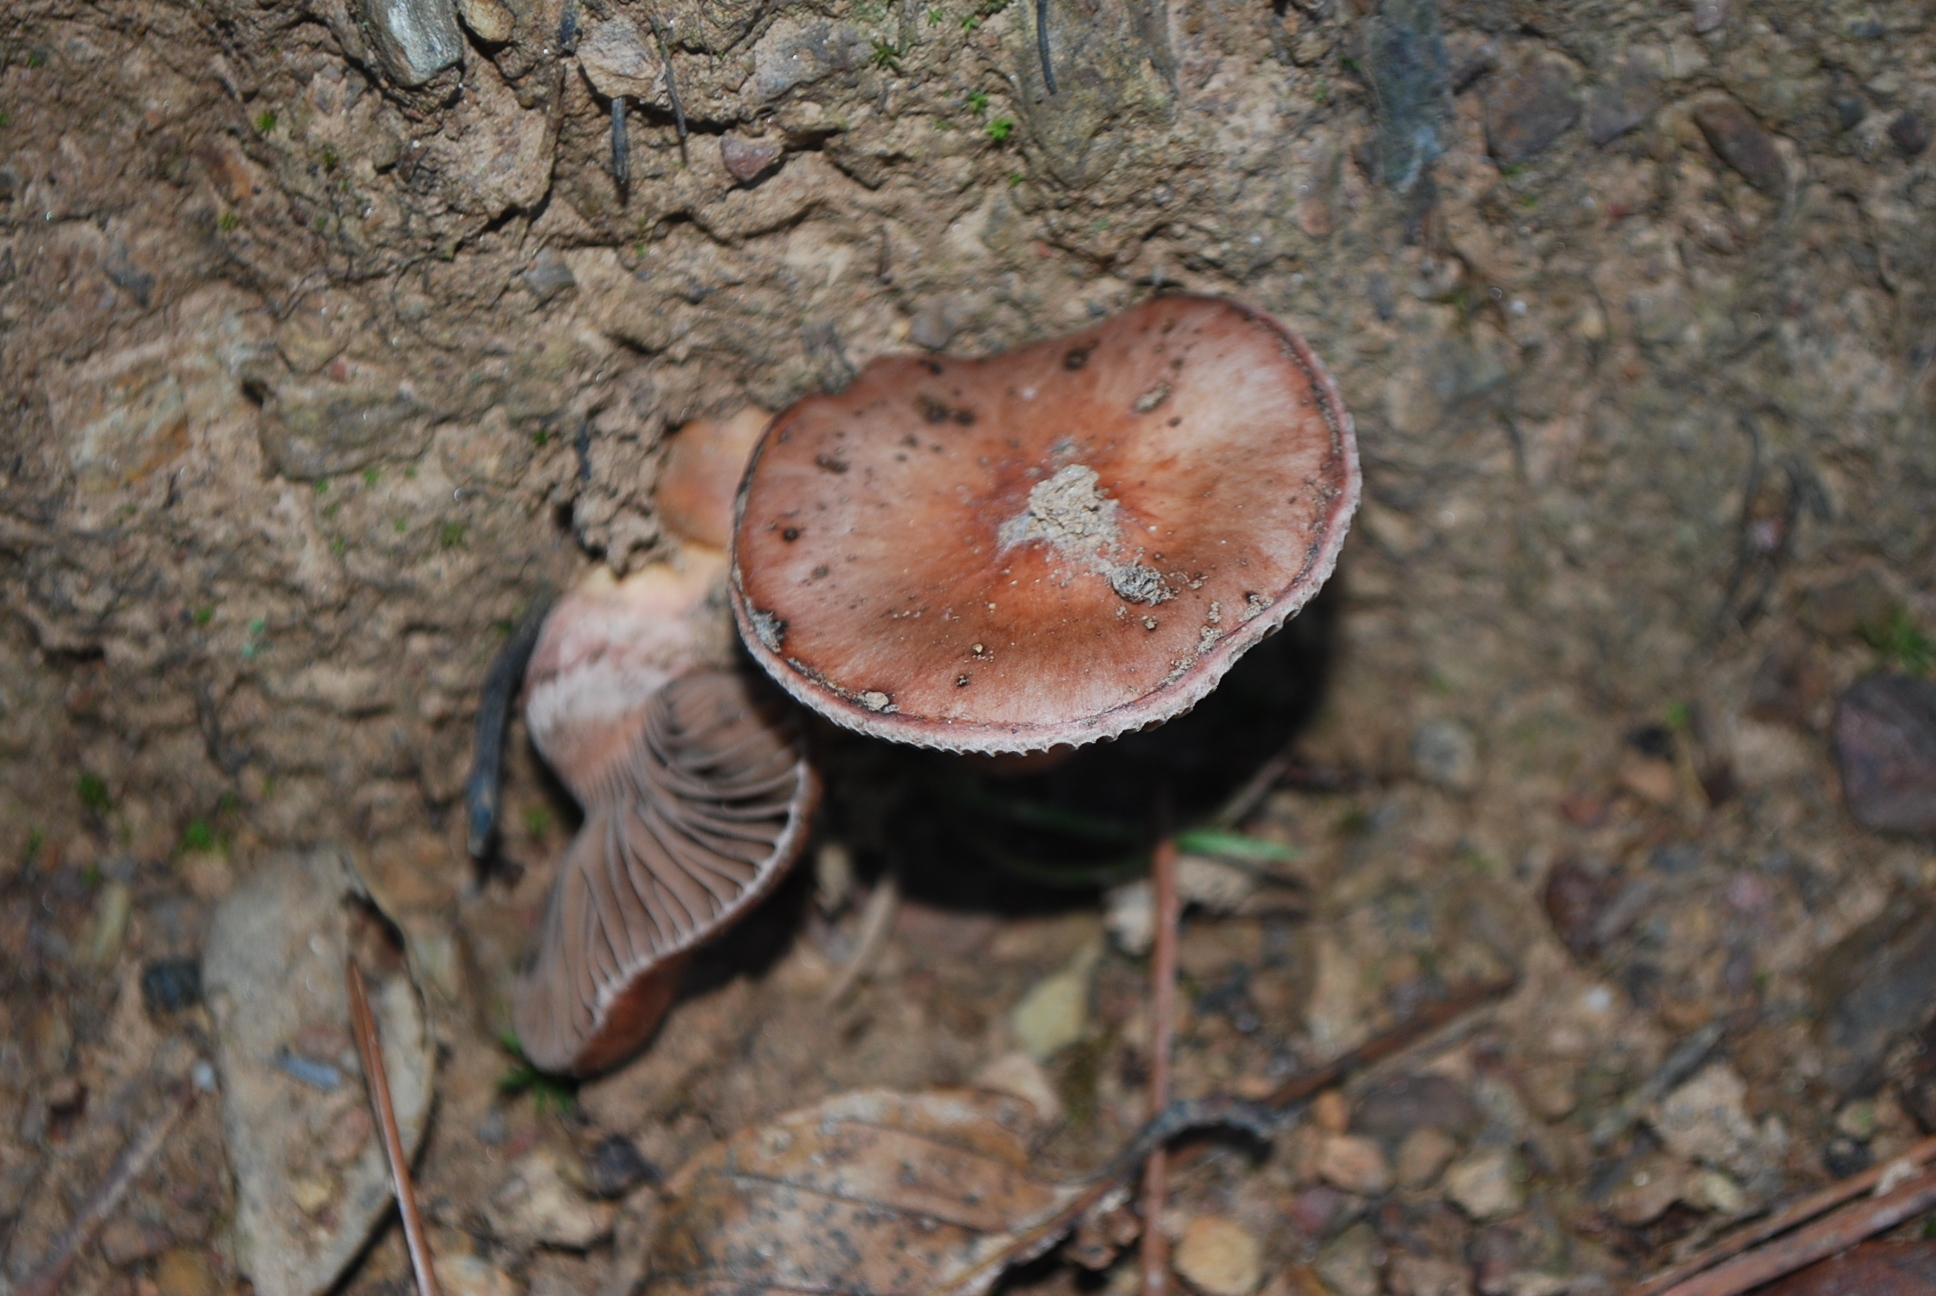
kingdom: Fungi
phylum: Basidiomycota
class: Agaricomycetes
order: Boletales
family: Gomphidiaceae
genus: Chroogomphus
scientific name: Chroogomphus rutilus
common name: Copper spike
